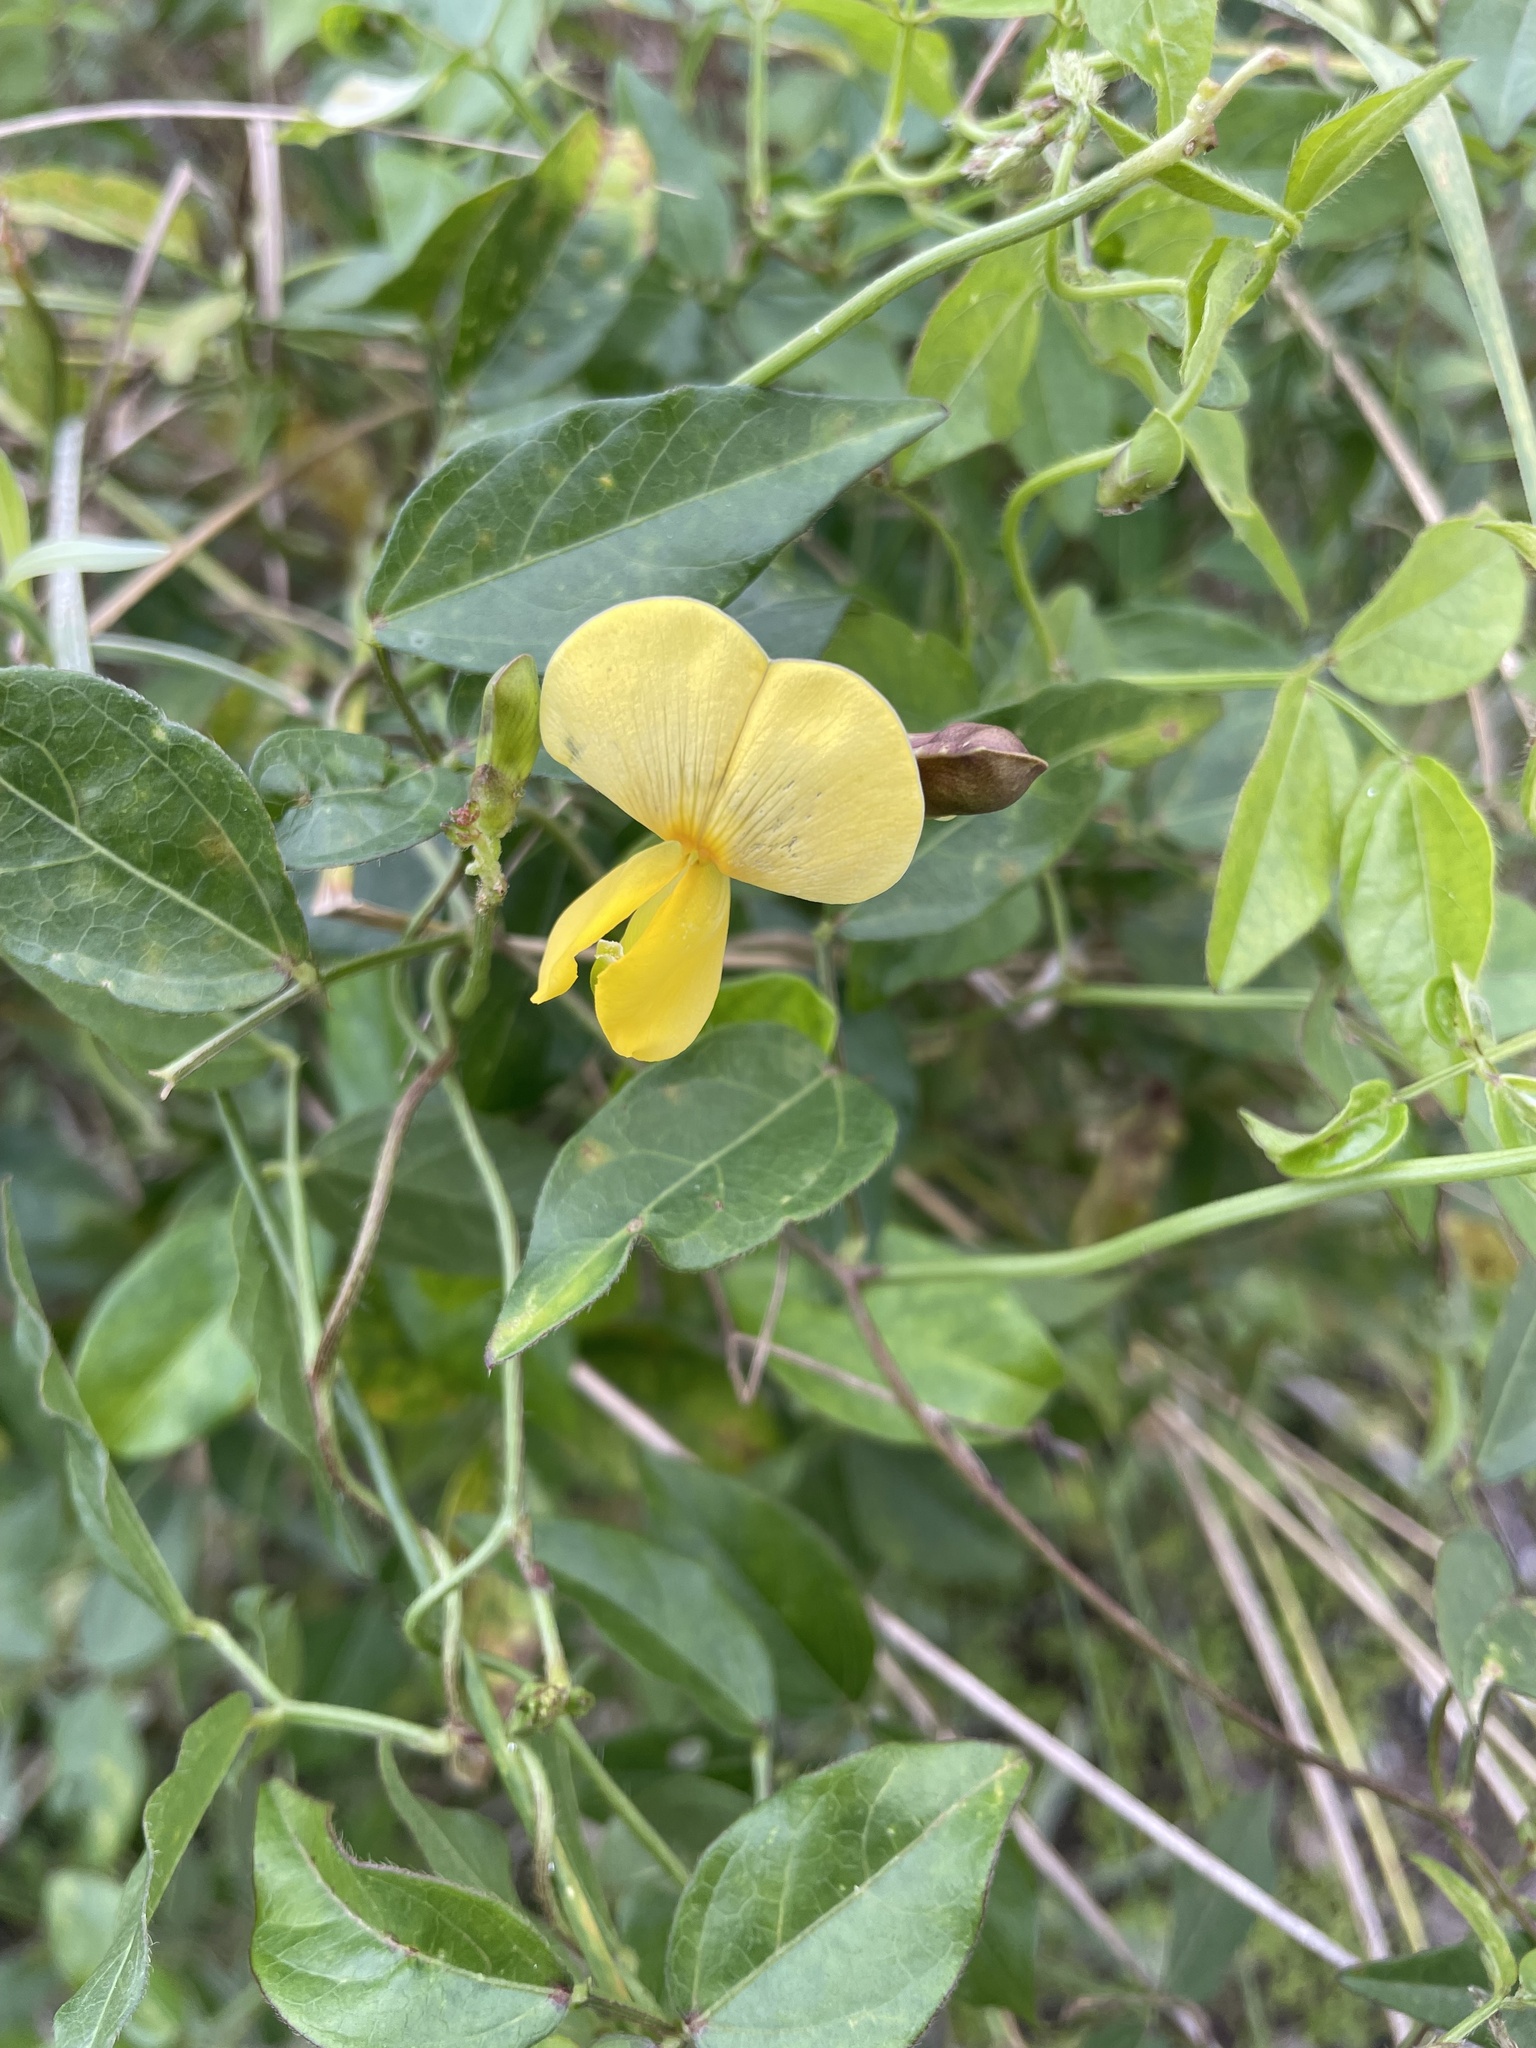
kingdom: Plantae
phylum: Tracheophyta
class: Magnoliopsida
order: Fabales
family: Fabaceae
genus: Vigna
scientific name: Vigna luteola
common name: Hairypod cowpea
